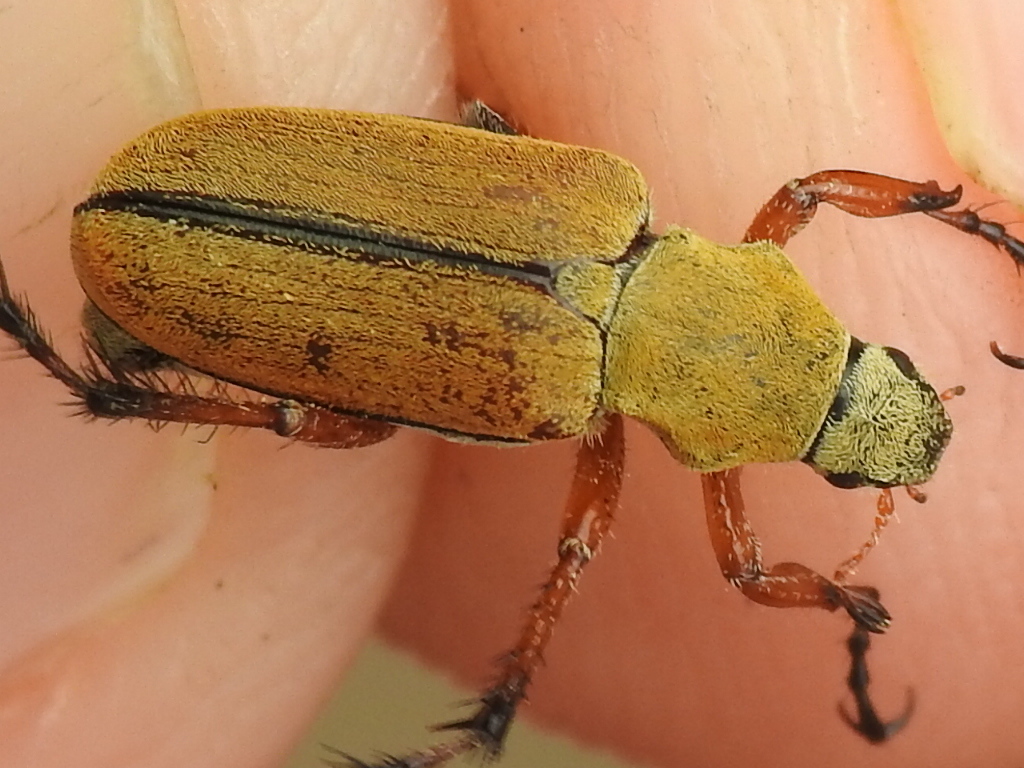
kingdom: Animalia
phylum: Arthropoda
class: Insecta
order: Coleoptera
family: Scarabaeidae
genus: Macrodactylus
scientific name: Macrodactylus subspinosus
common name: American rose chafer
